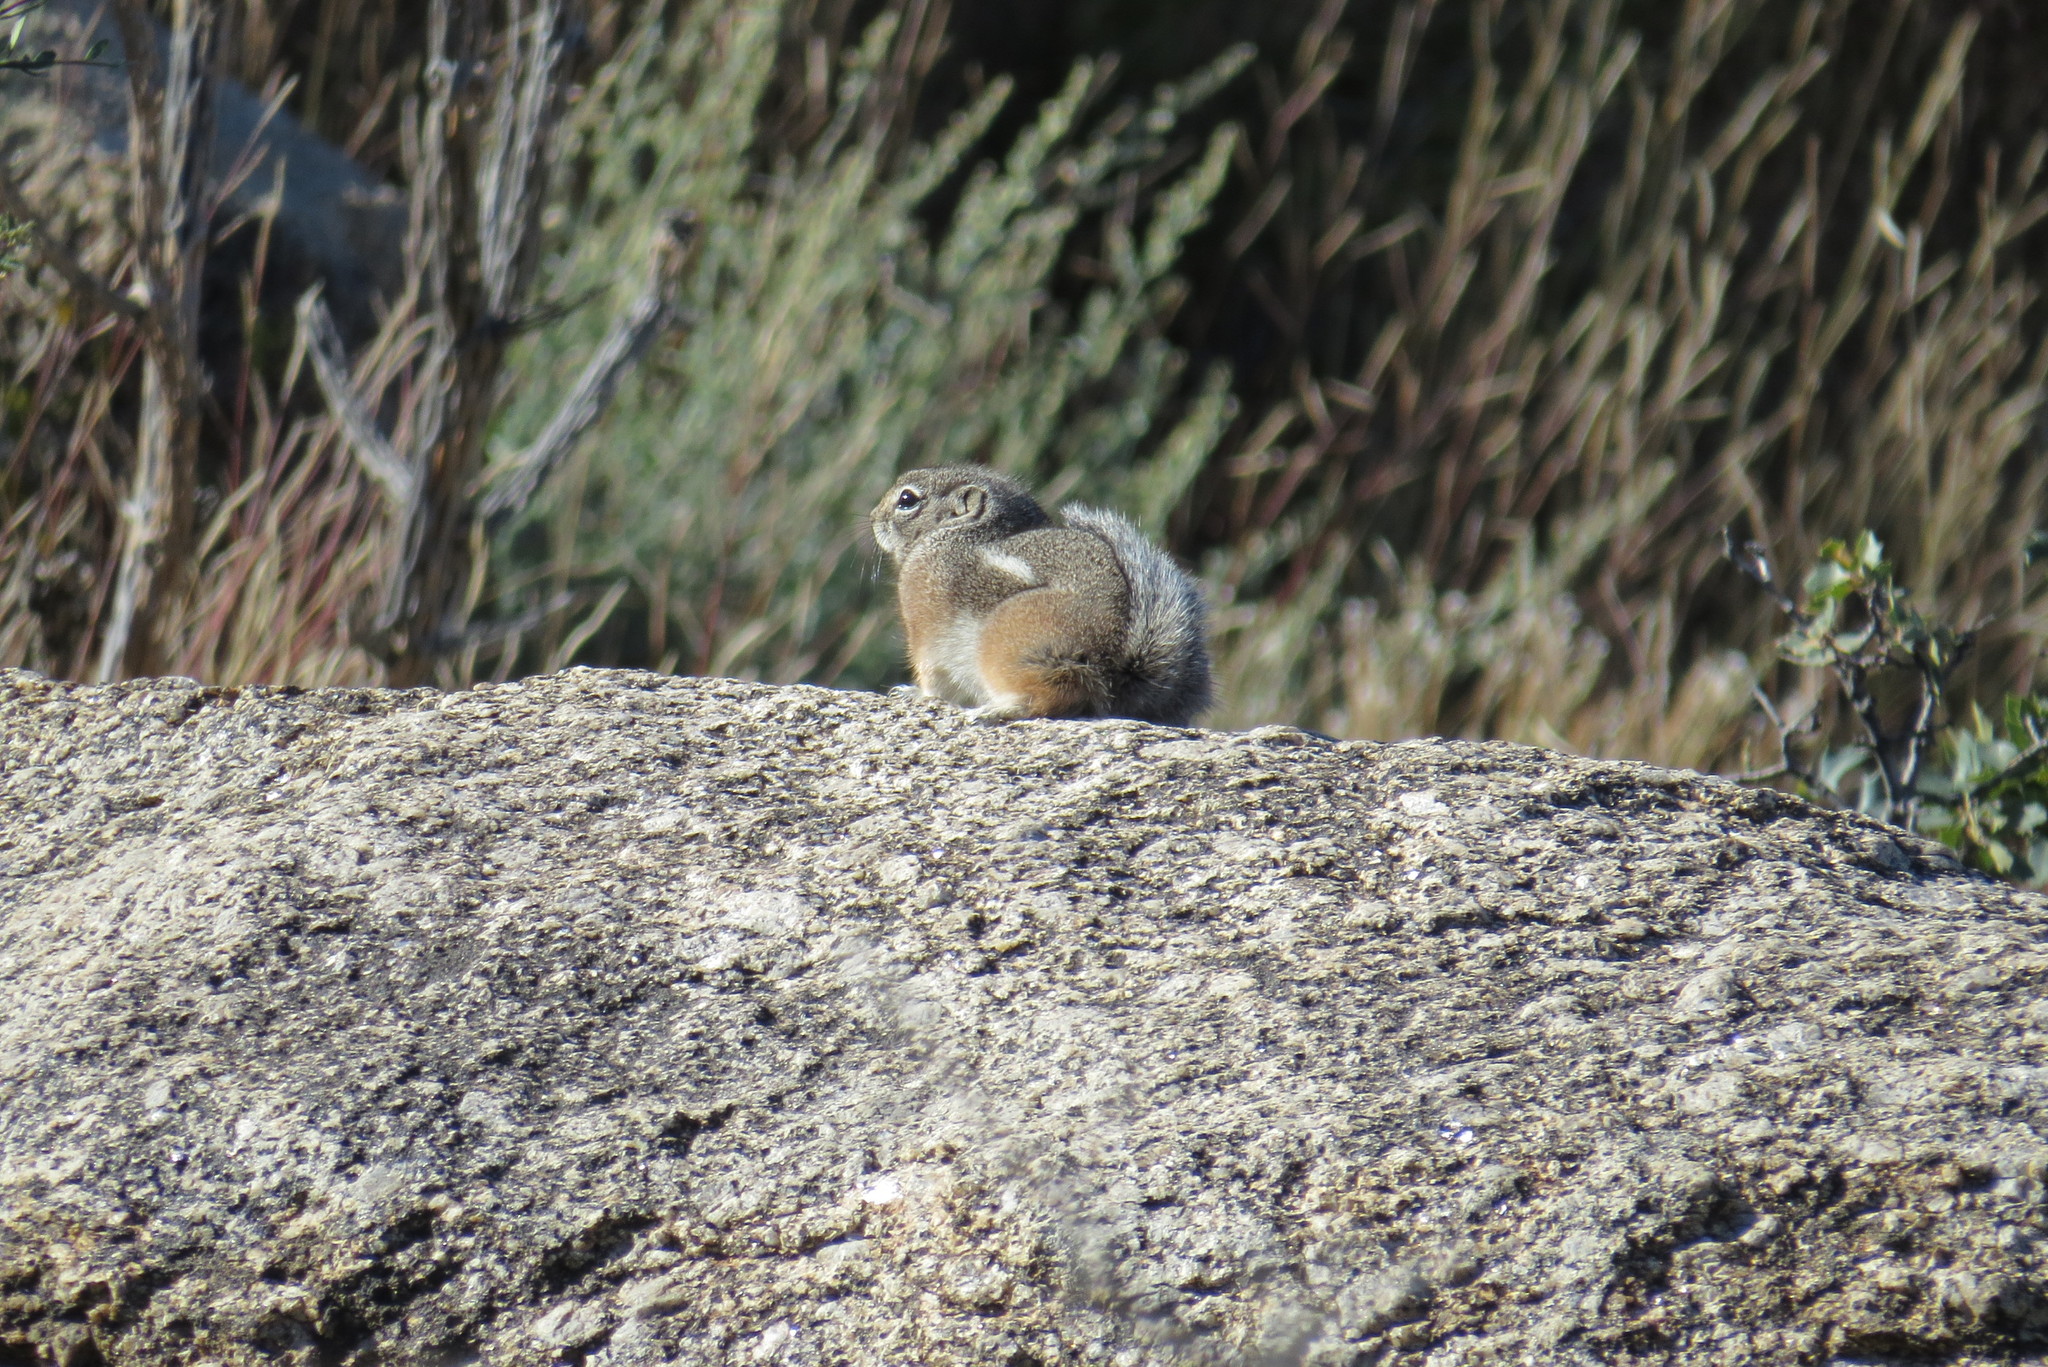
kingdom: Animalia
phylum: Chordata
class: Mammalia
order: Rodentia
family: Sciuridae
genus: Ammospermophilus
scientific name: Ammospermophilus interpres
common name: Texas antelope squirrel
